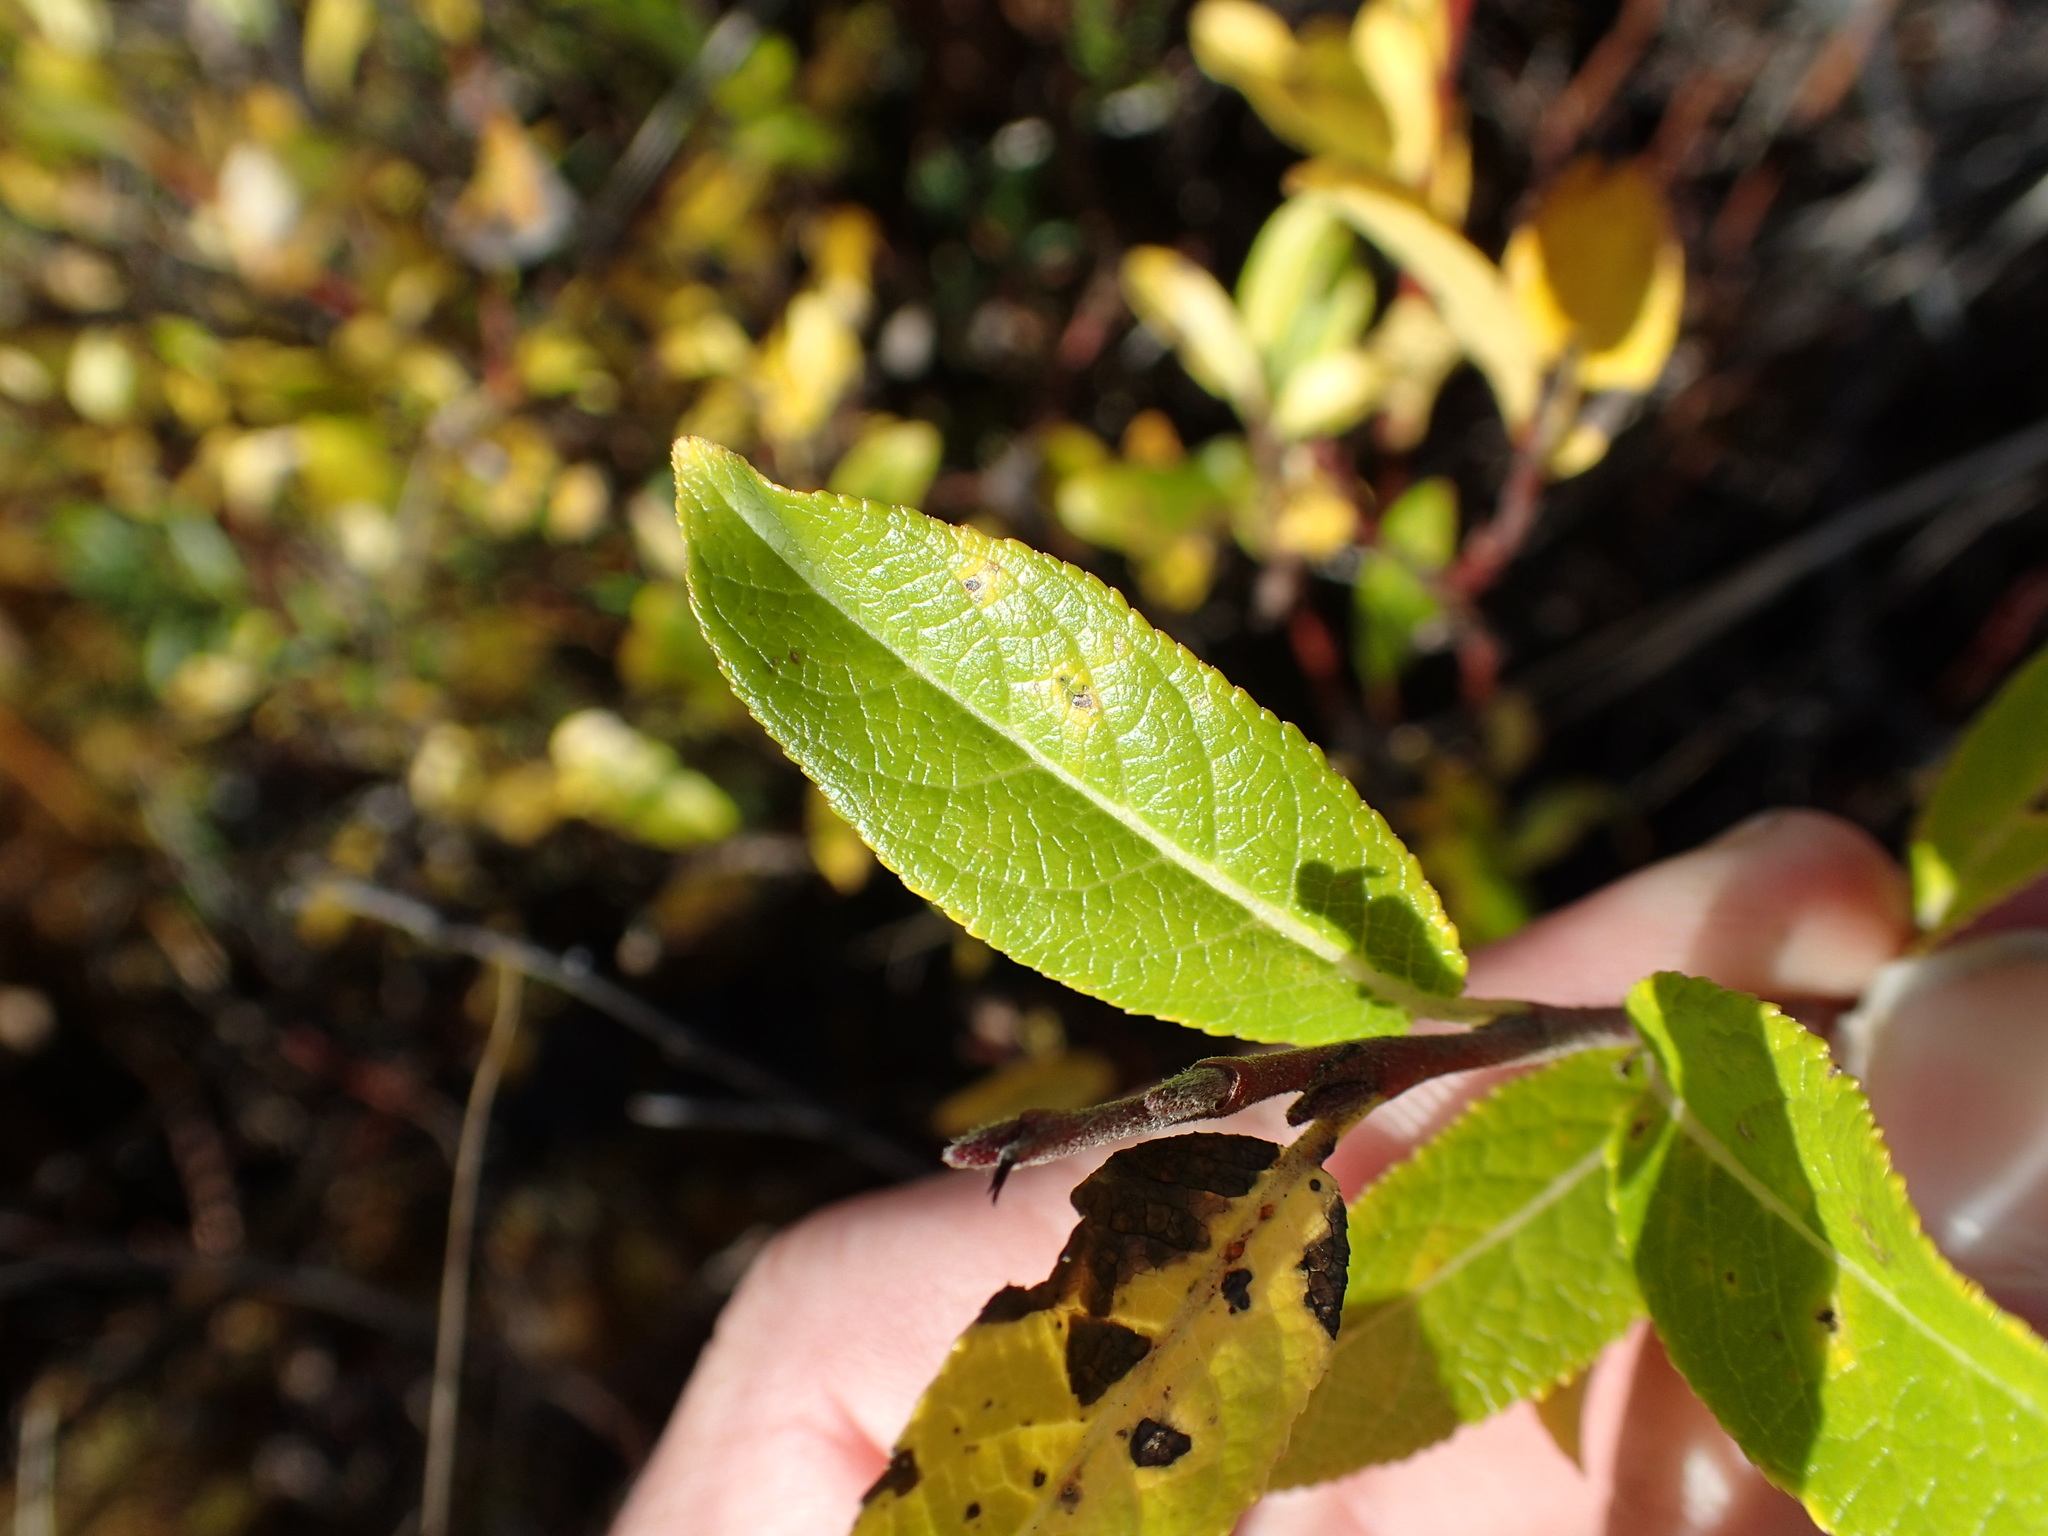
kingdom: Plantae
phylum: Tracheophyta
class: Magnoliopsida
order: Malpighiales
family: Salicaceae
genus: Salix
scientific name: Salix myrtillifolia
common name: Bilberry willow
